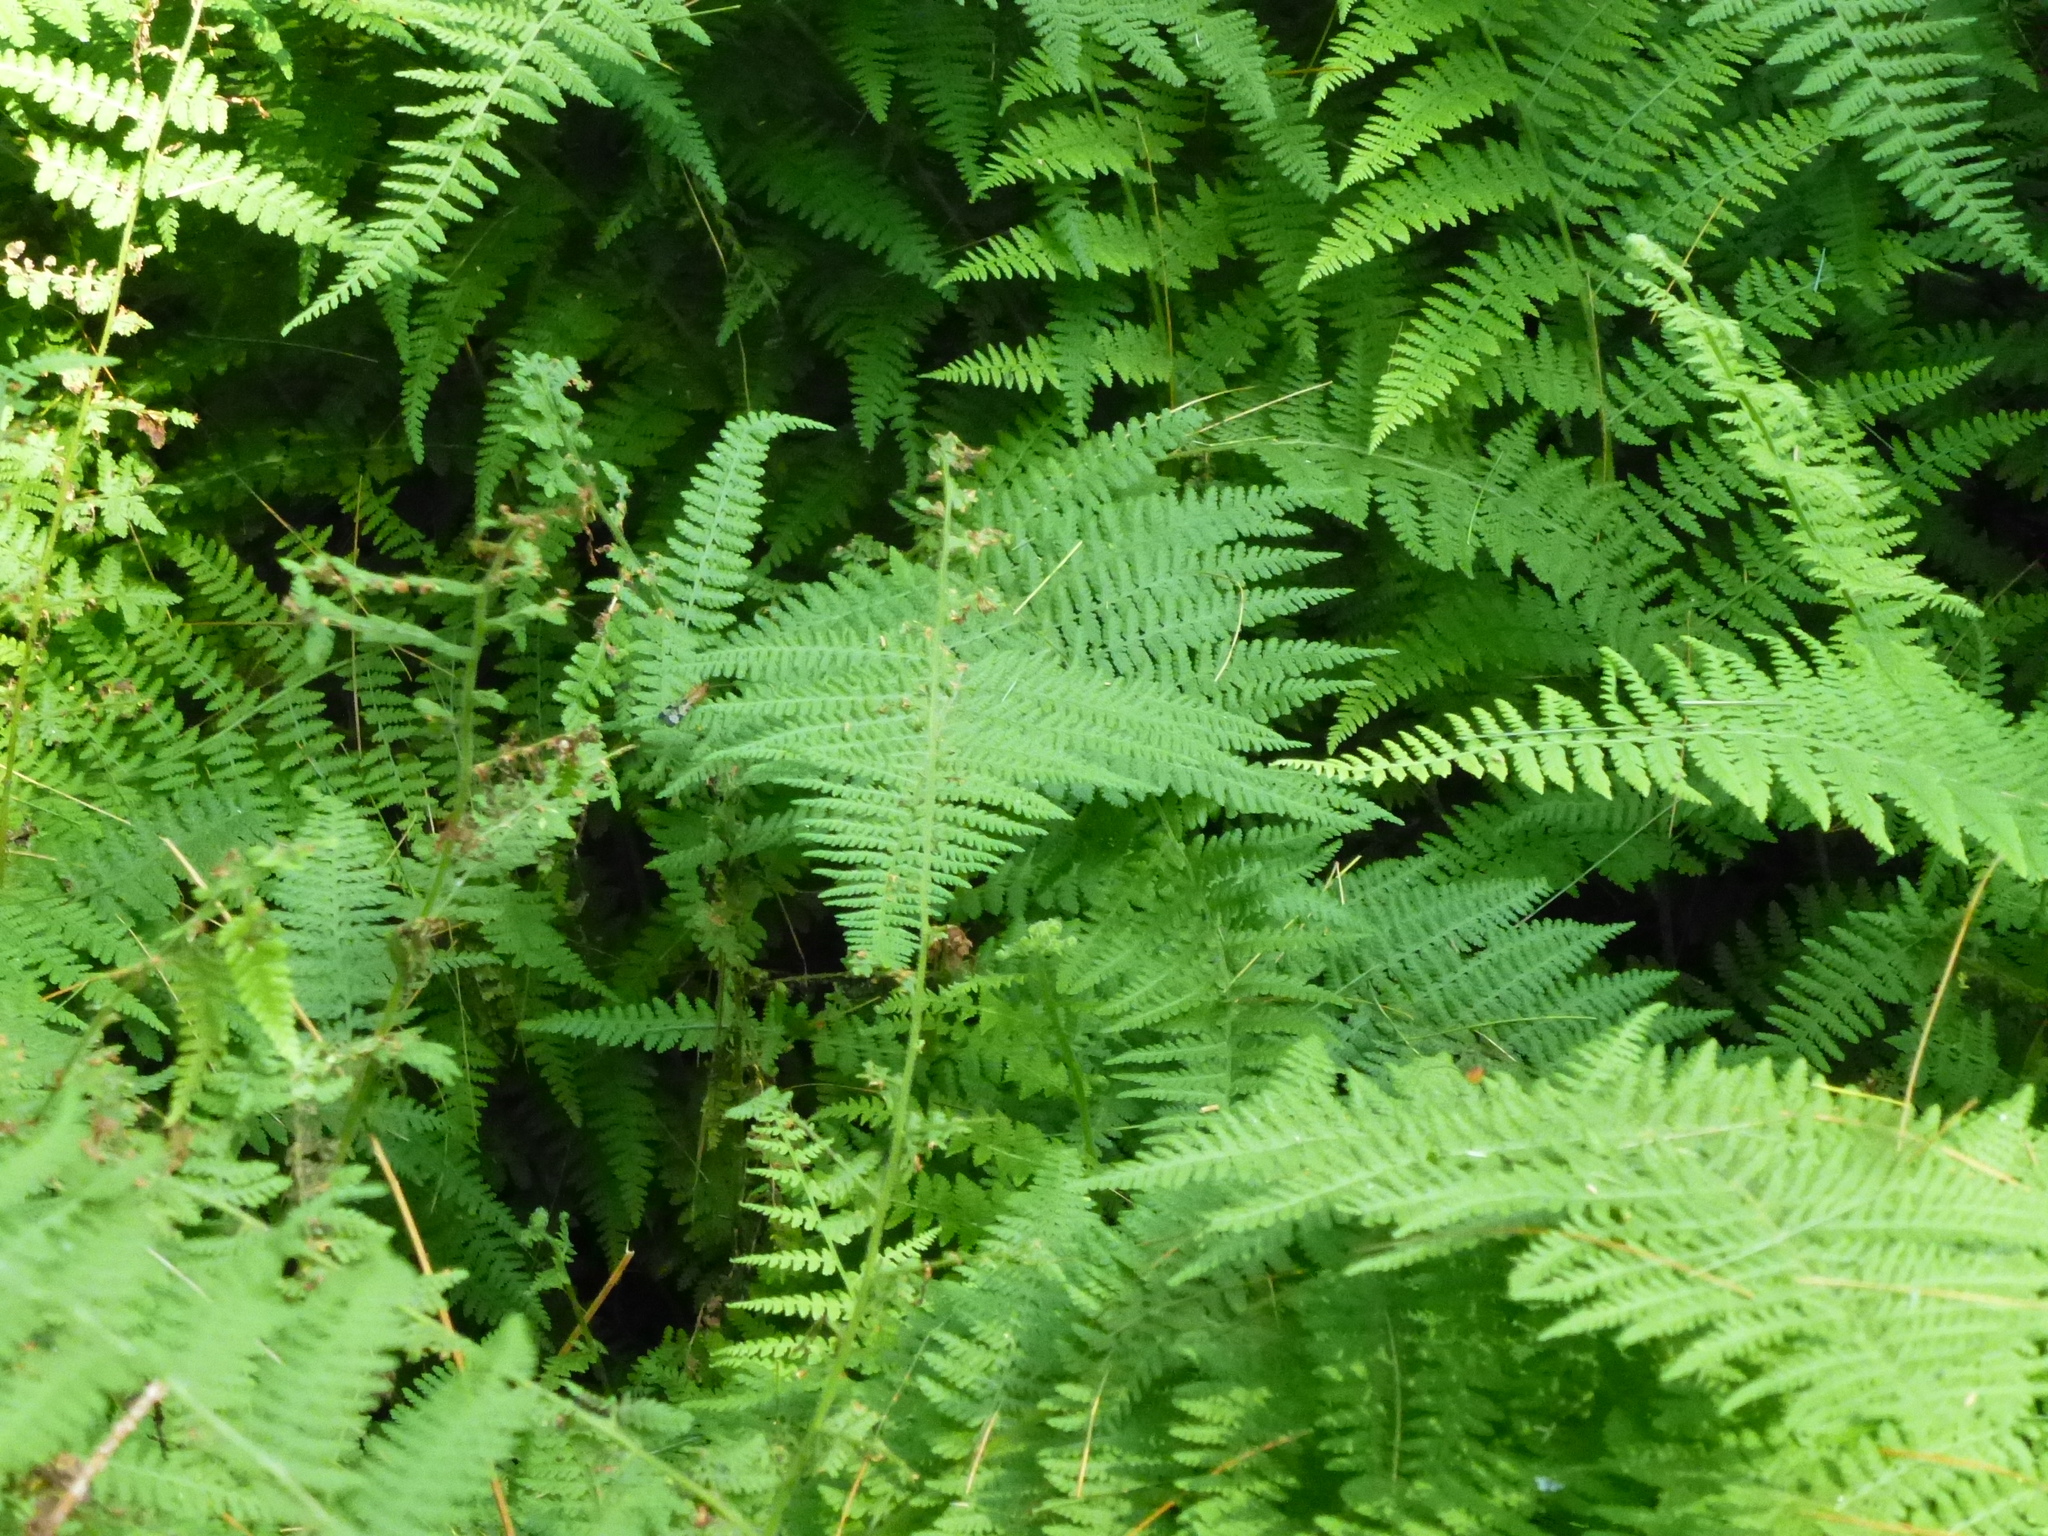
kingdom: Plantae
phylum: Tracheophyta
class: Polypodiopsida
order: Polypodiales
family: Dennstaedtiaceae
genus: Sitobolium
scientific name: Sitobolium punctilobum
